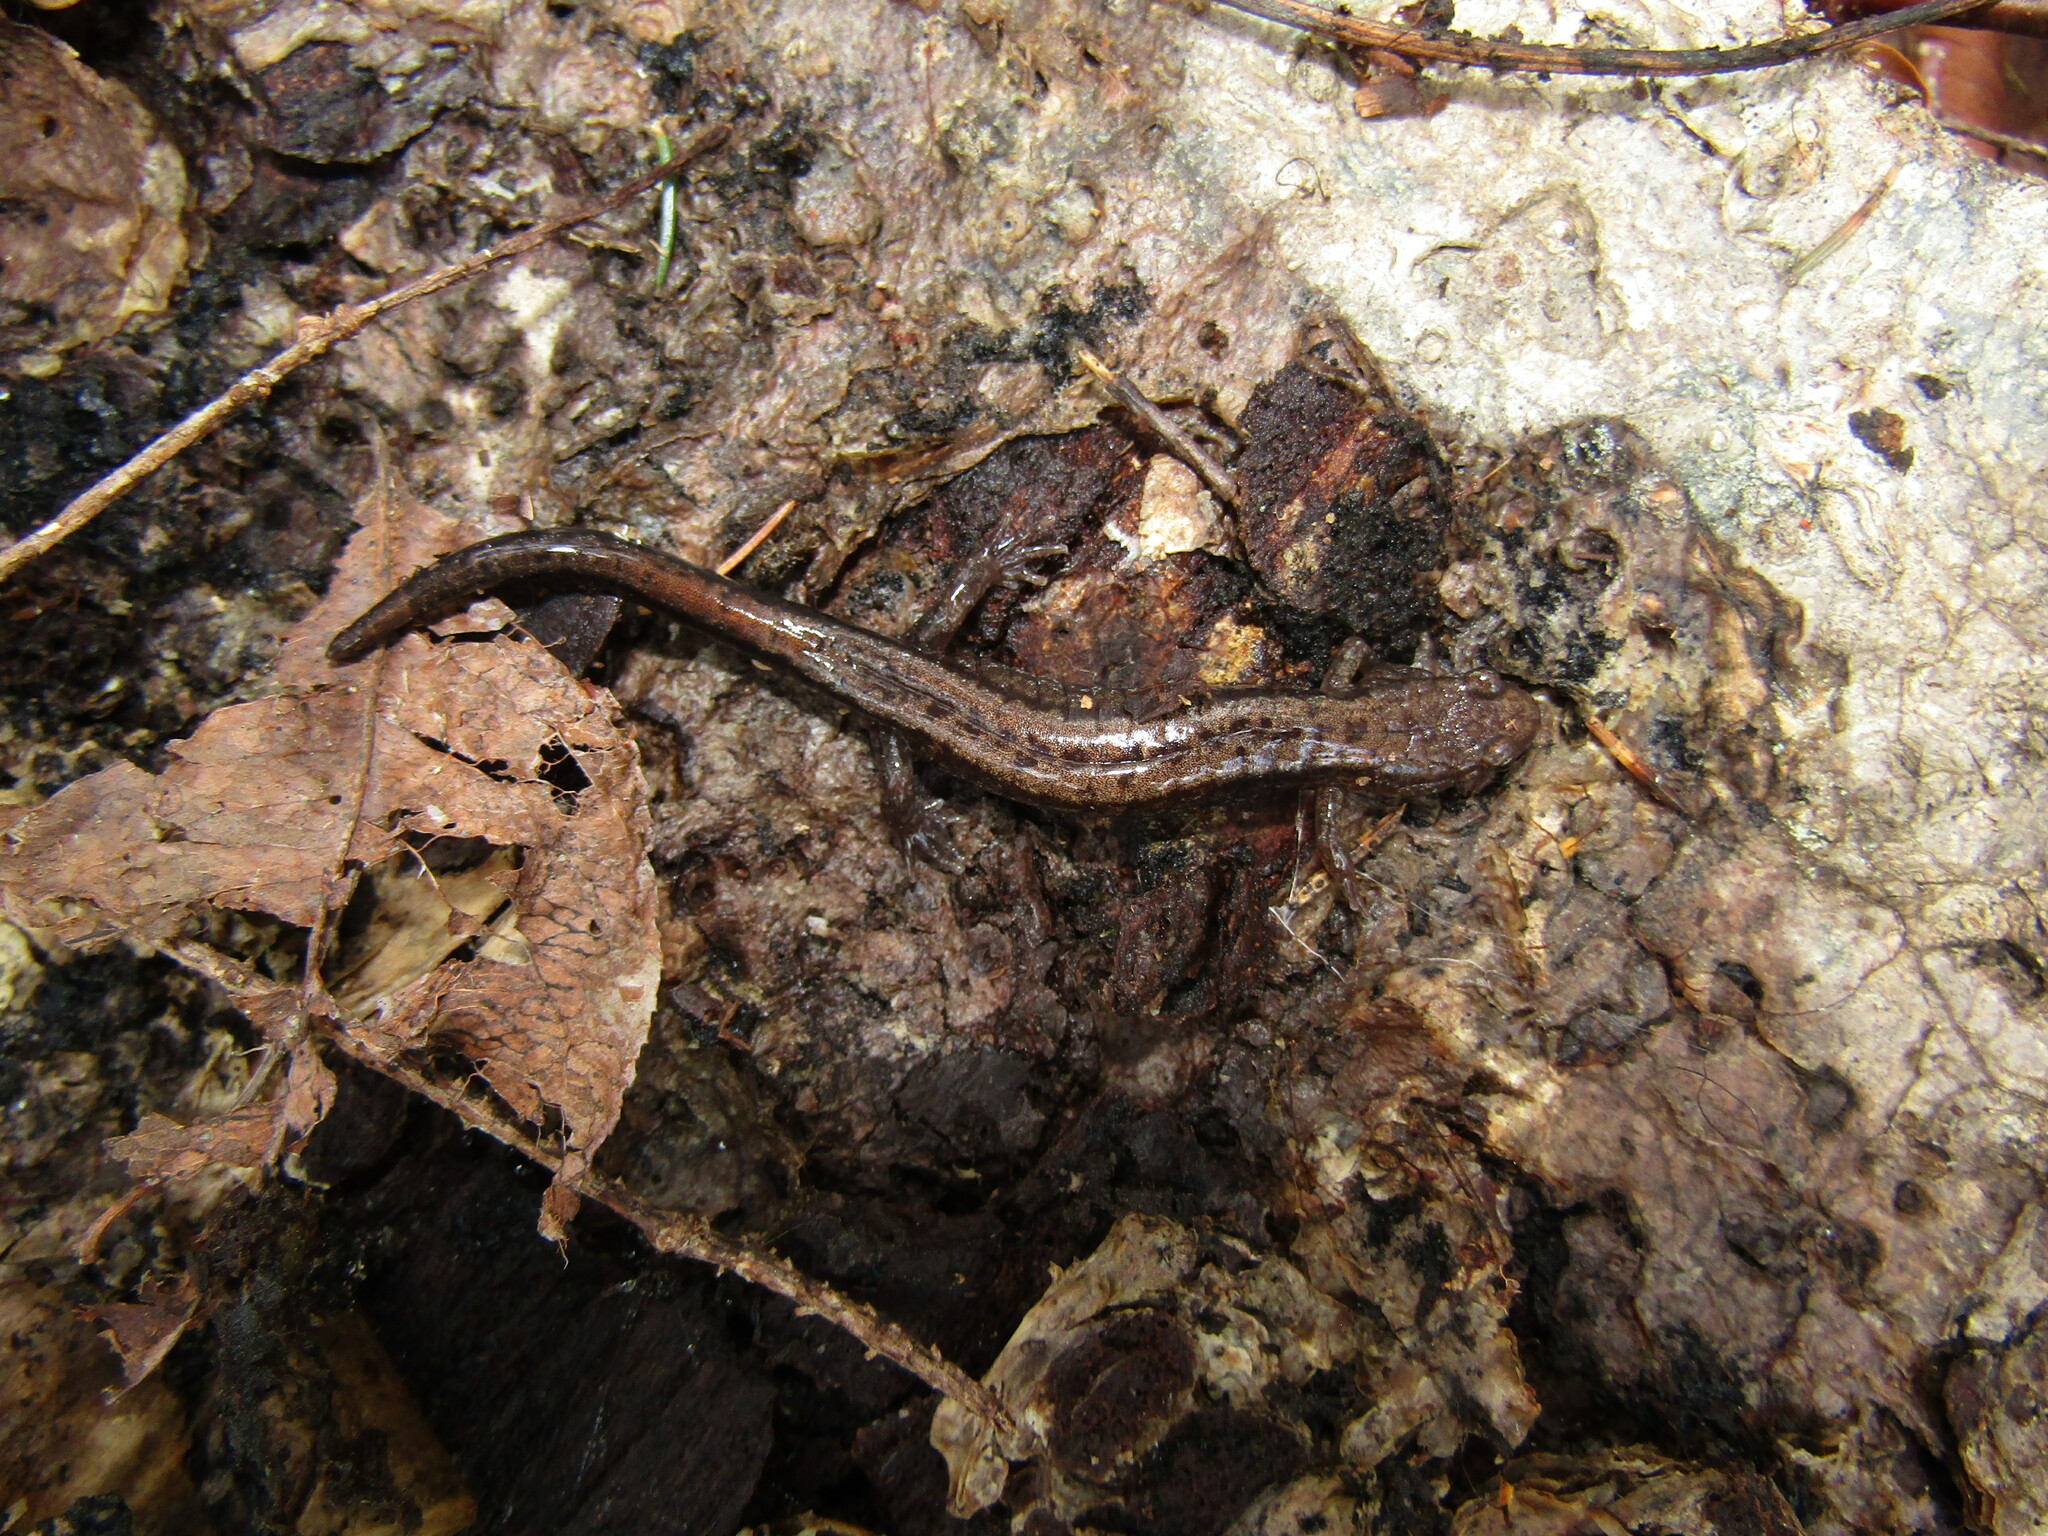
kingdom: Animalia
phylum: Chordata
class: Amphibia
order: Caudata
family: Plethodontidae
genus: Desmognathus
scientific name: Desmognathus ochrophaeus
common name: Allegheny mountain dusky salamander
